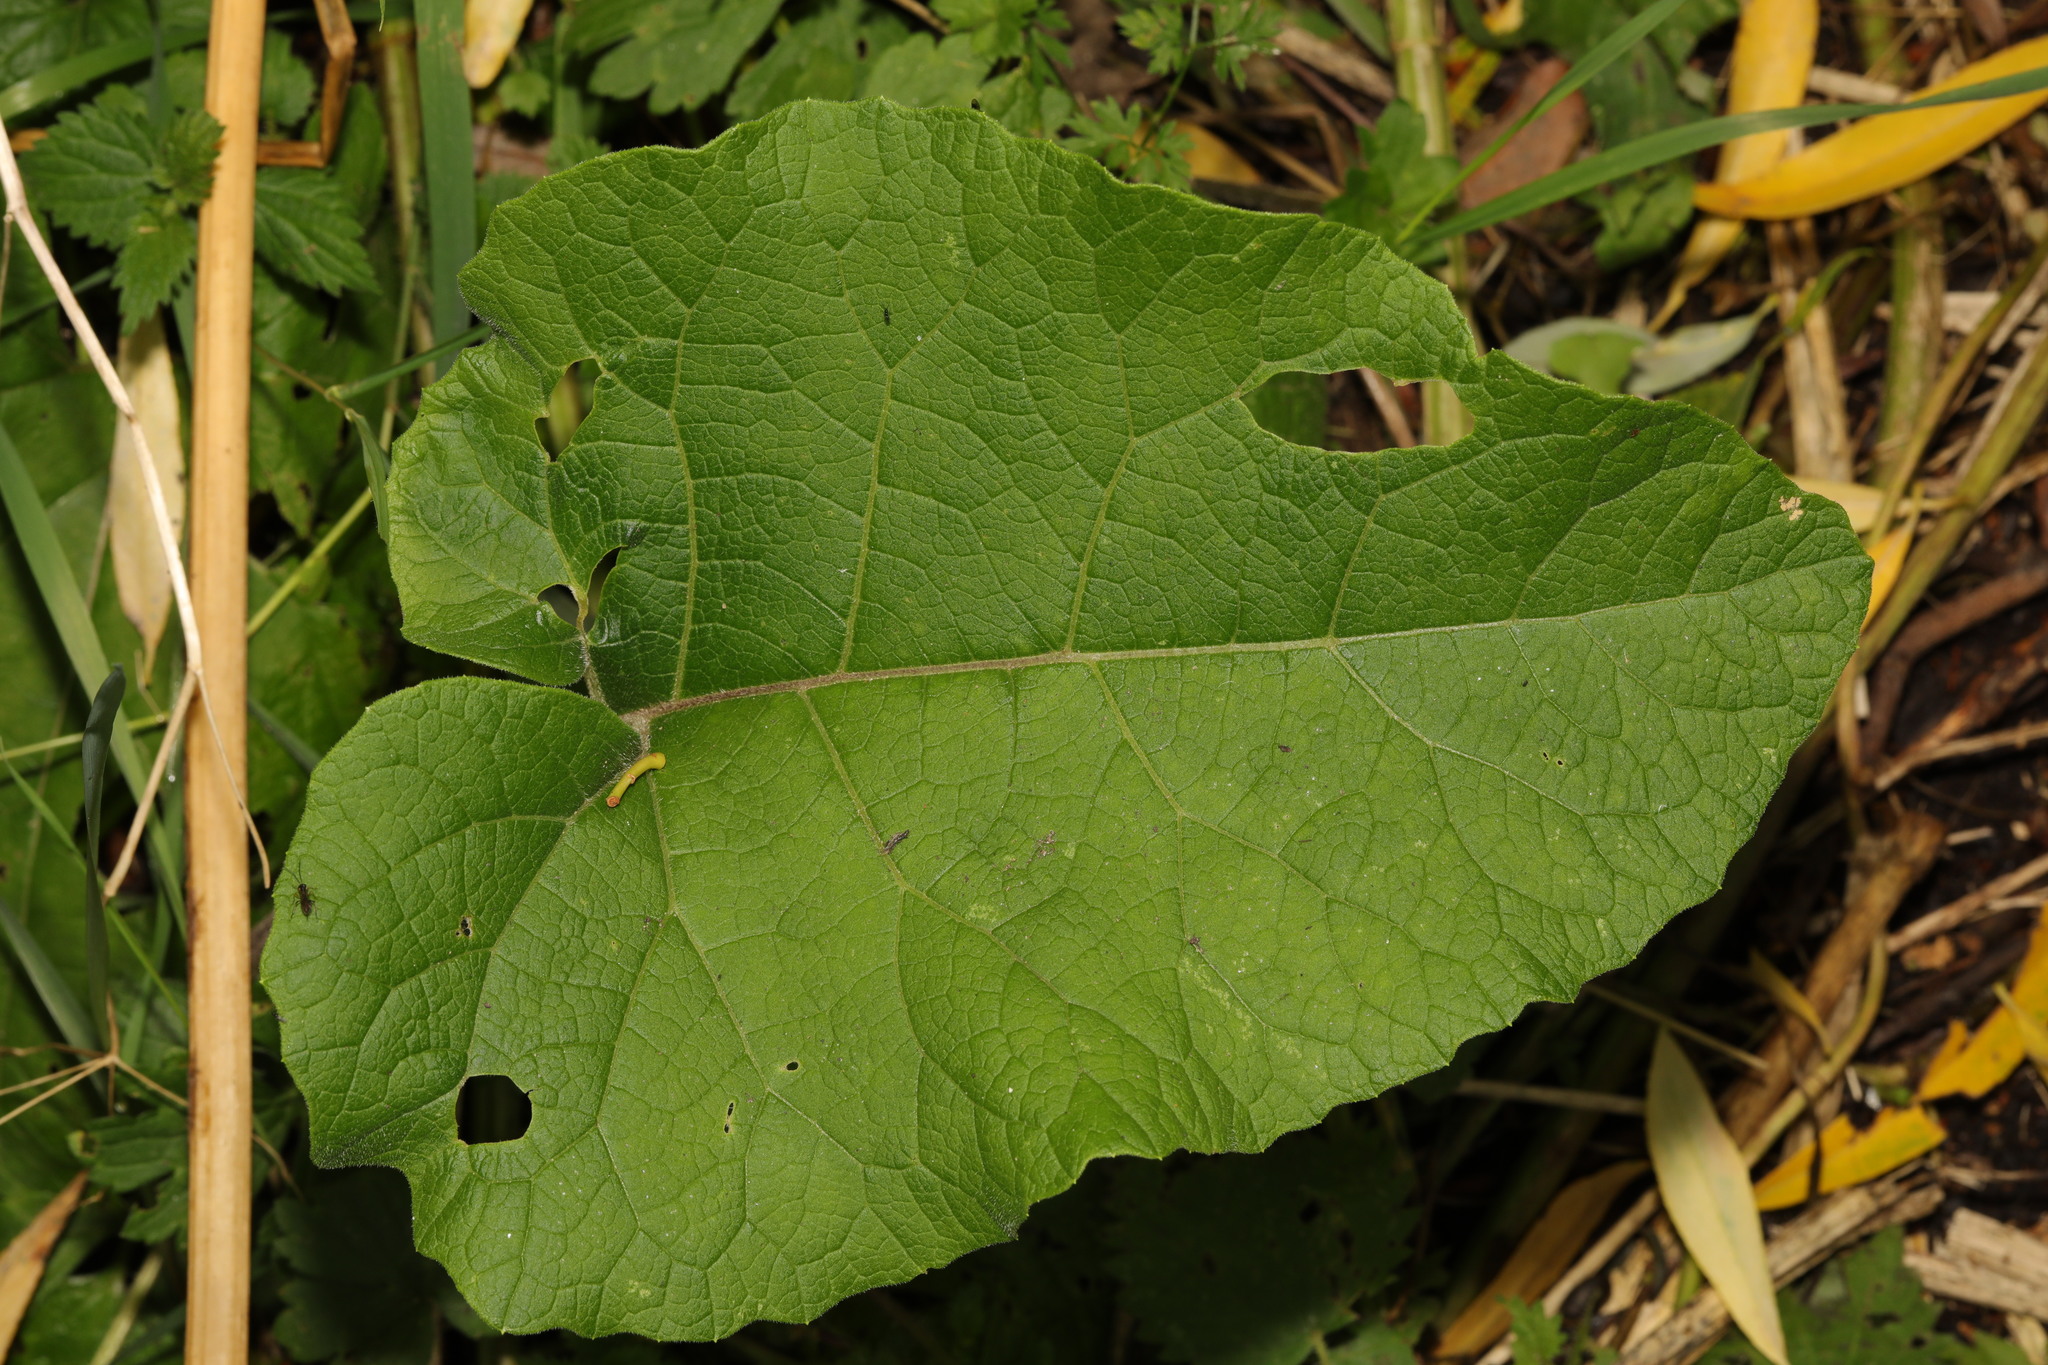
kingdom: Plantae
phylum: Tracheophyta
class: Magnoliopsida
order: Asterales
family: Asteraceae
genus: Arctium
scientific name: Arctium minus
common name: Lesser burdock
